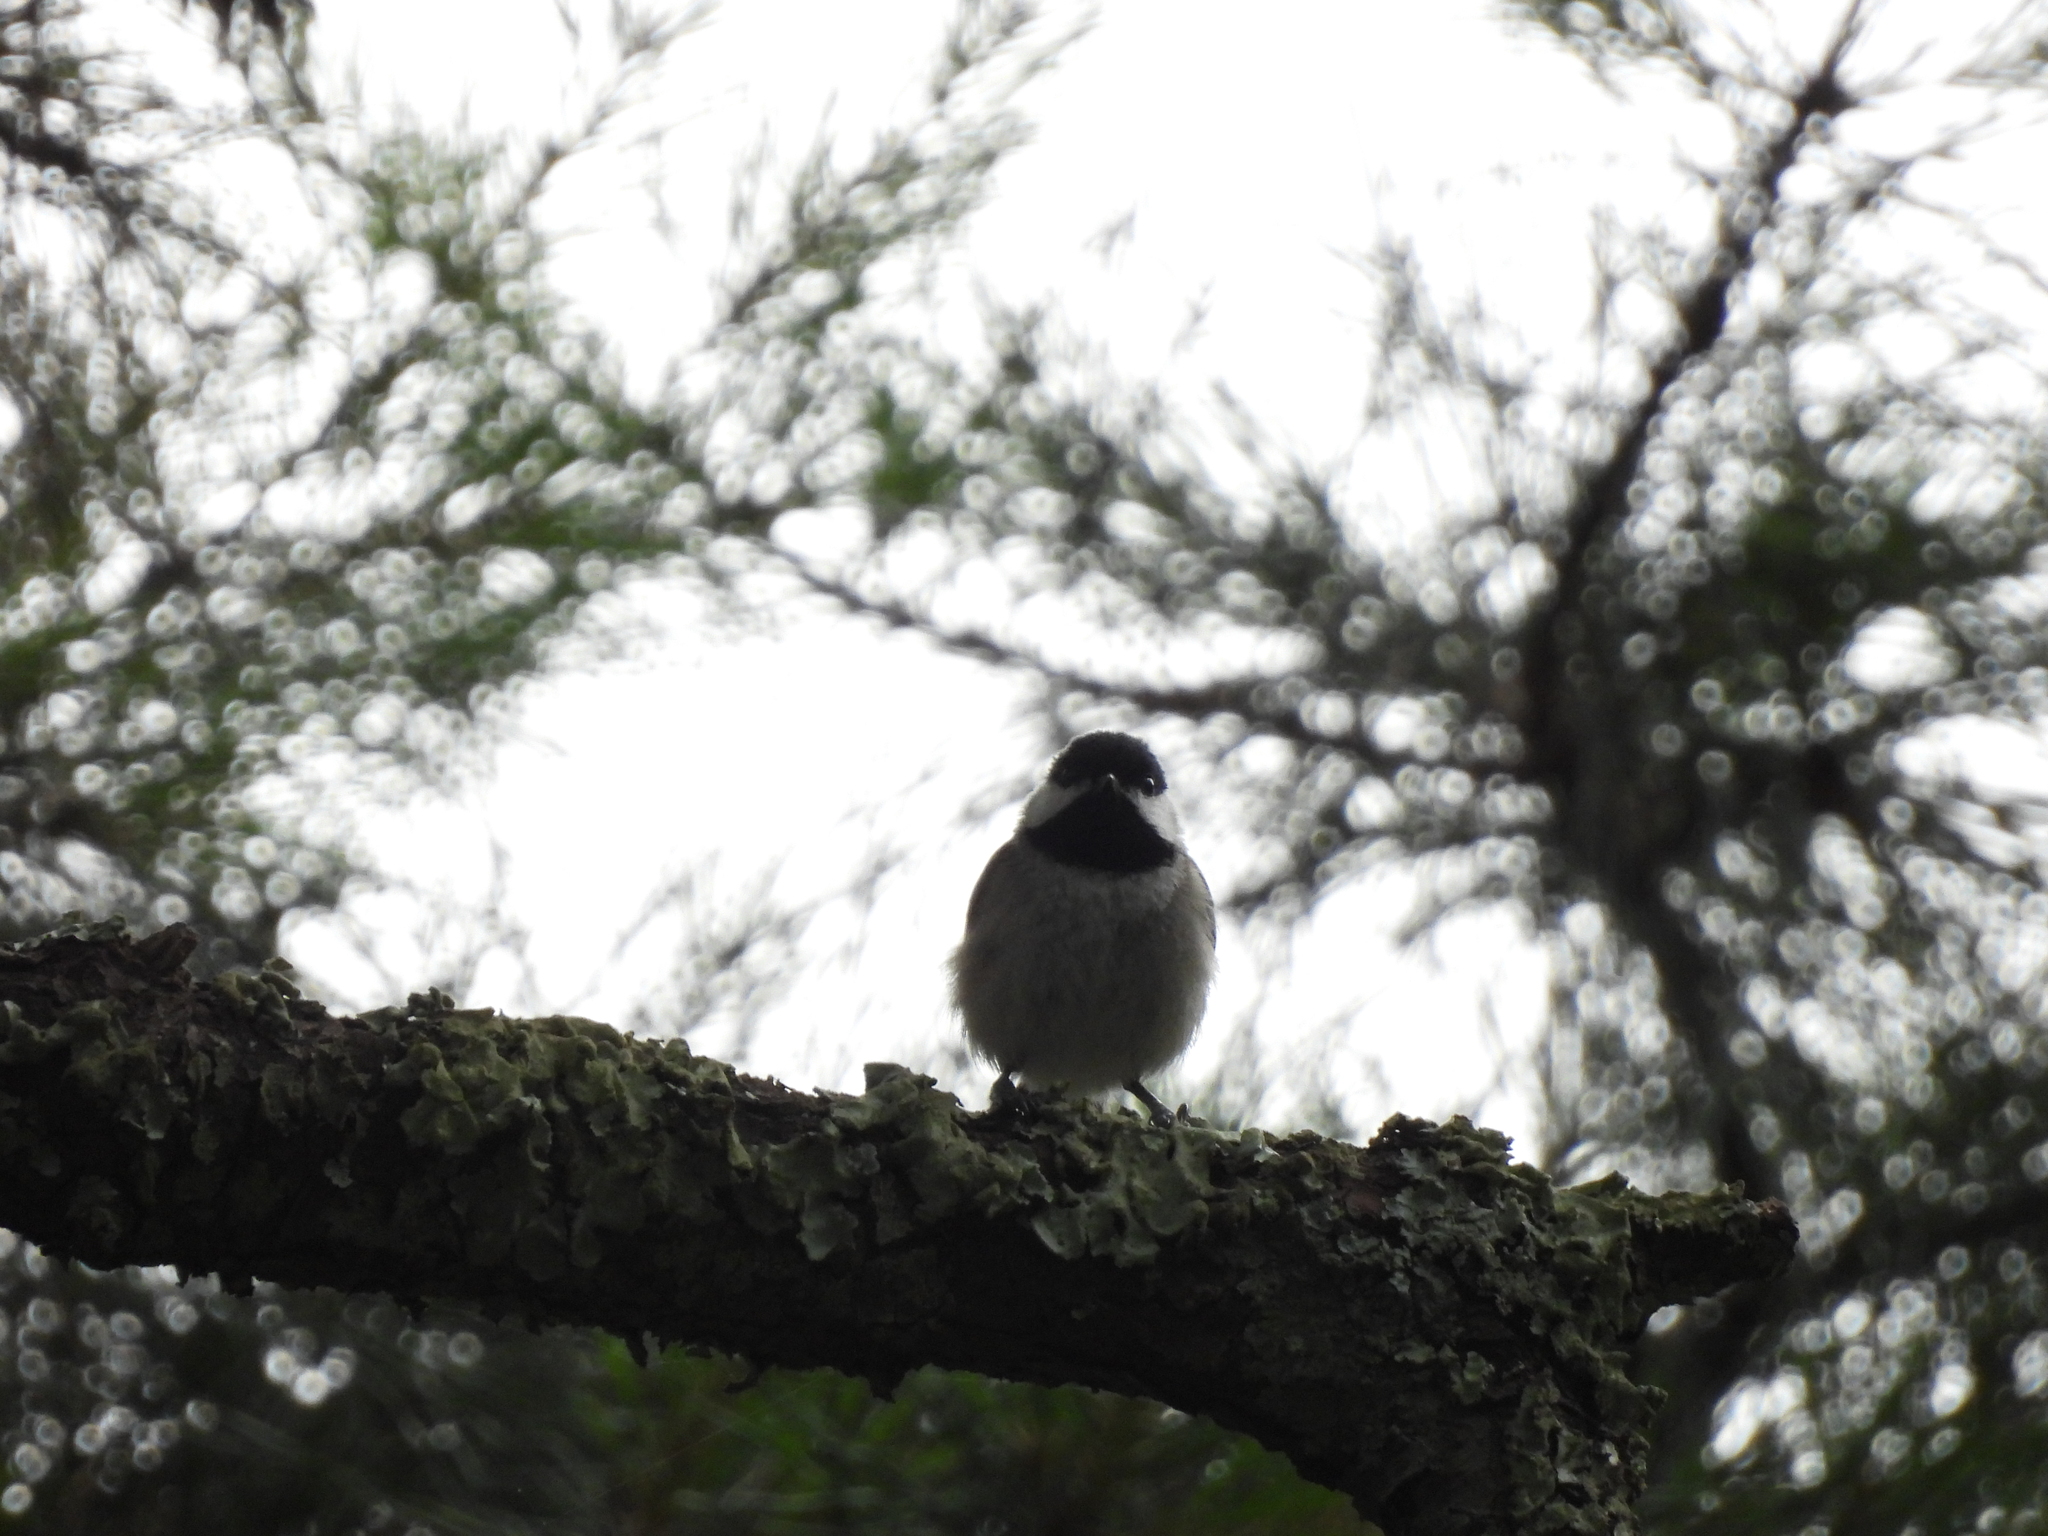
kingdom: Animalia
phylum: Chordata
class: Aves
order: Passeriformes
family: Paridae
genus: Poecile
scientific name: Poecile carolinensis
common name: Carolina chickadee
